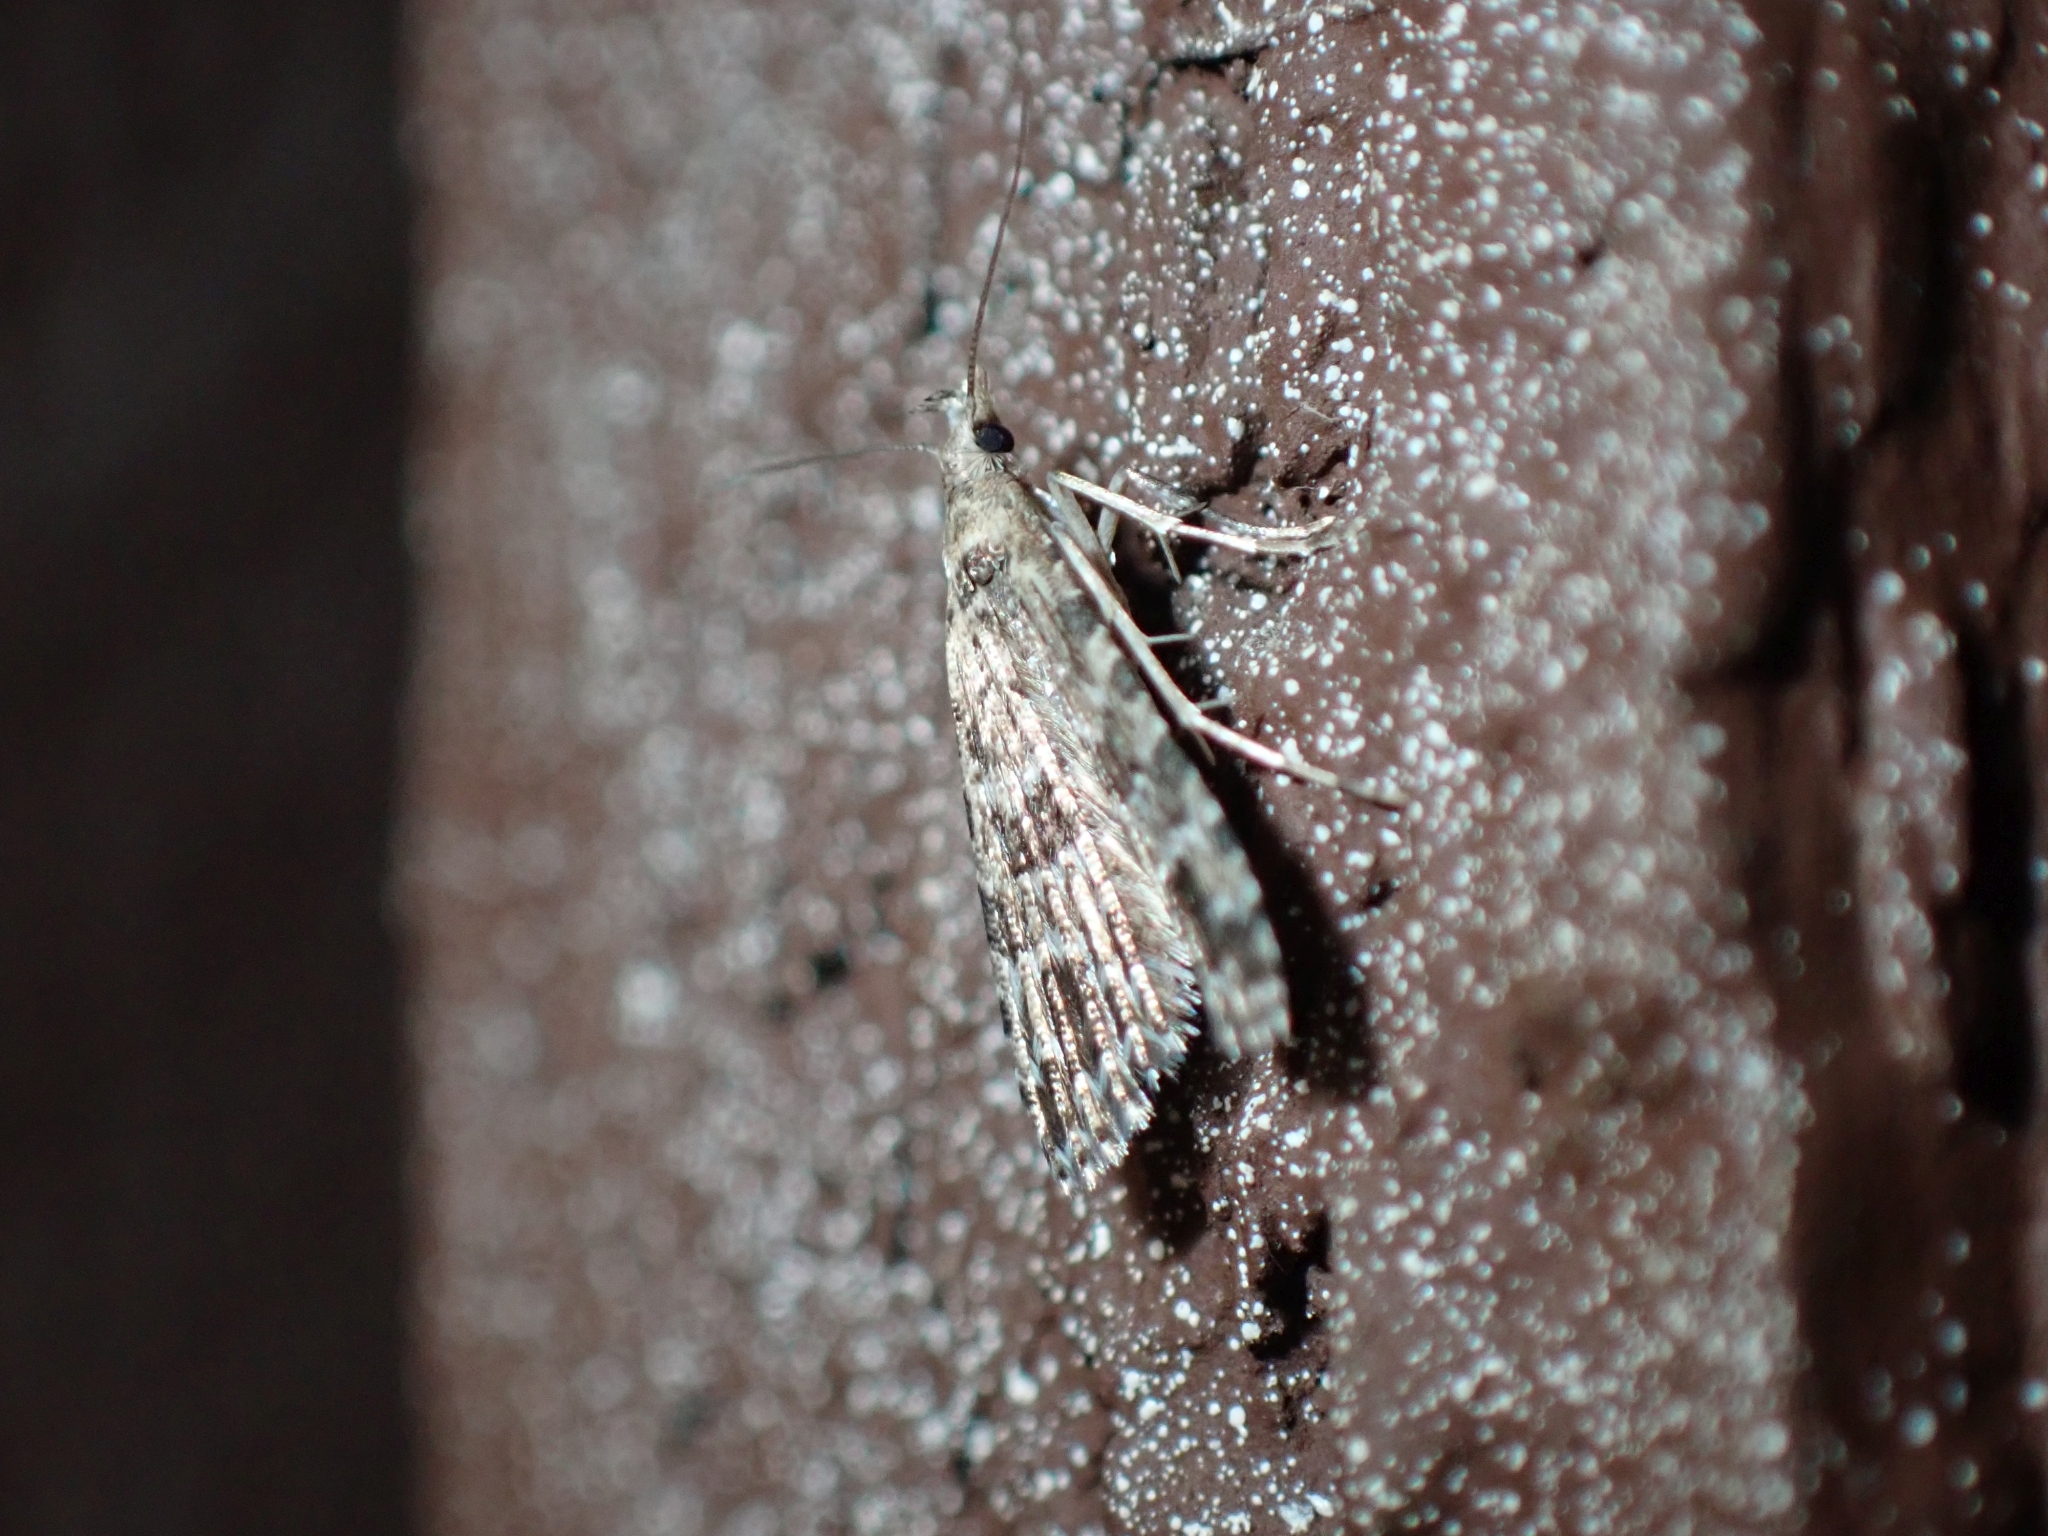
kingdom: Animalia
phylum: Arthropoda
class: Insecta
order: Lepidoptera
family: Alucitidae
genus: Alucita
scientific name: Alucita montana
